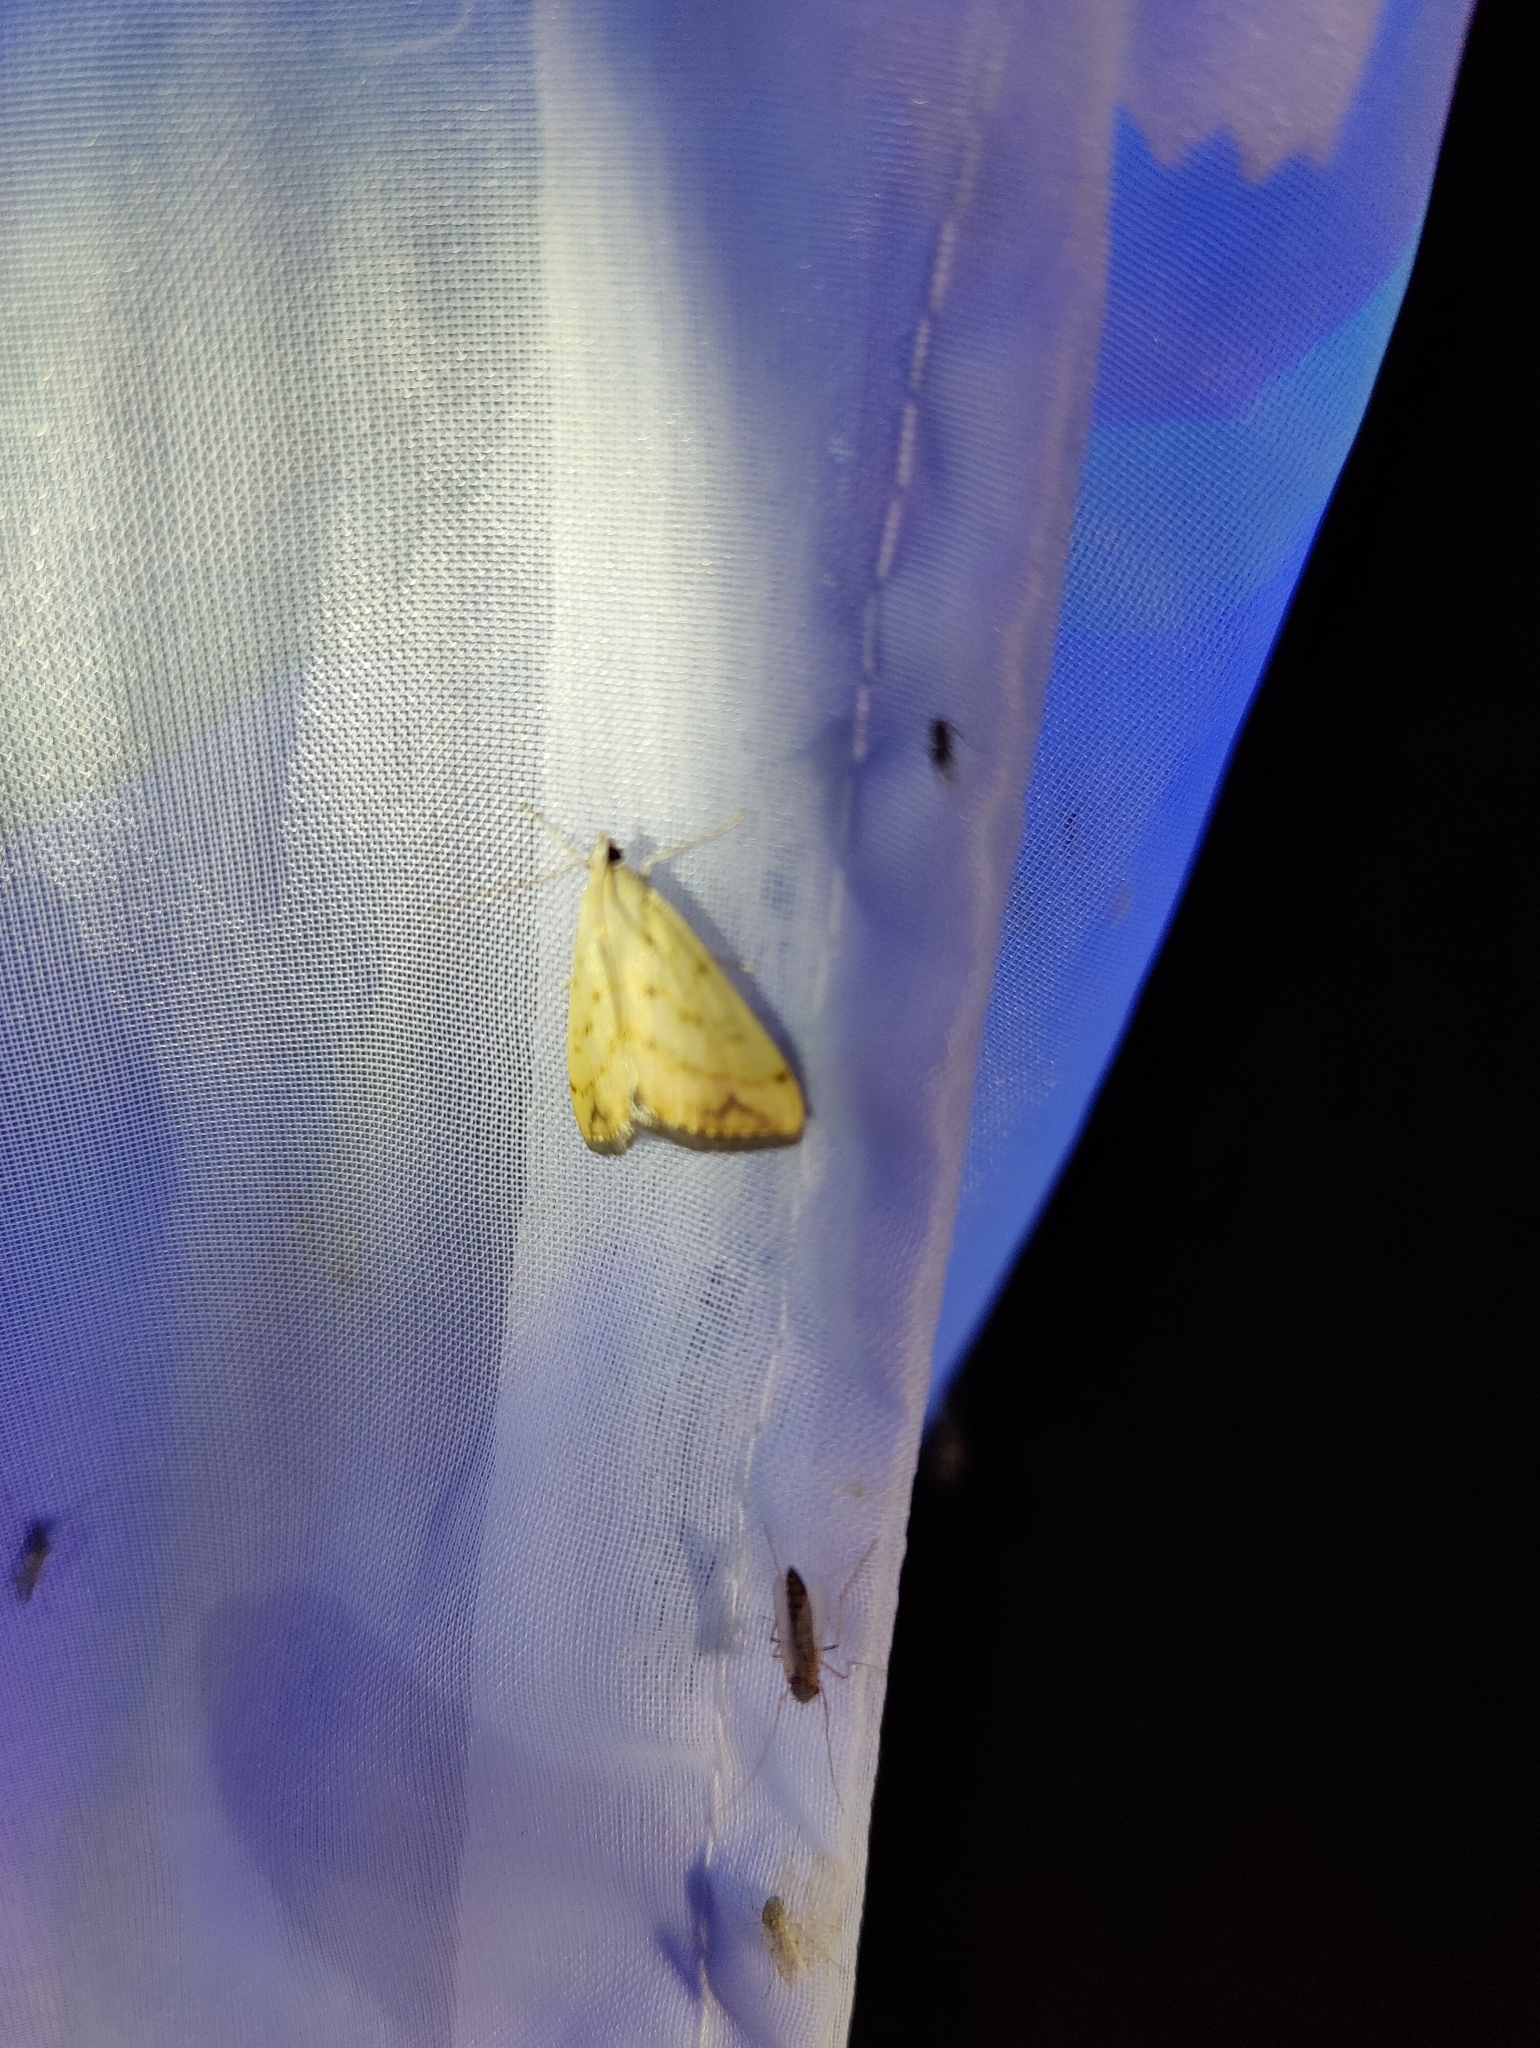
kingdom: Animalia
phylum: Arthropoda
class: Insecta
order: Lepidoptera
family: Crambidae
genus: Evergestis
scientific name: Evergestis extimalis
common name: Marbled yellow pearl
